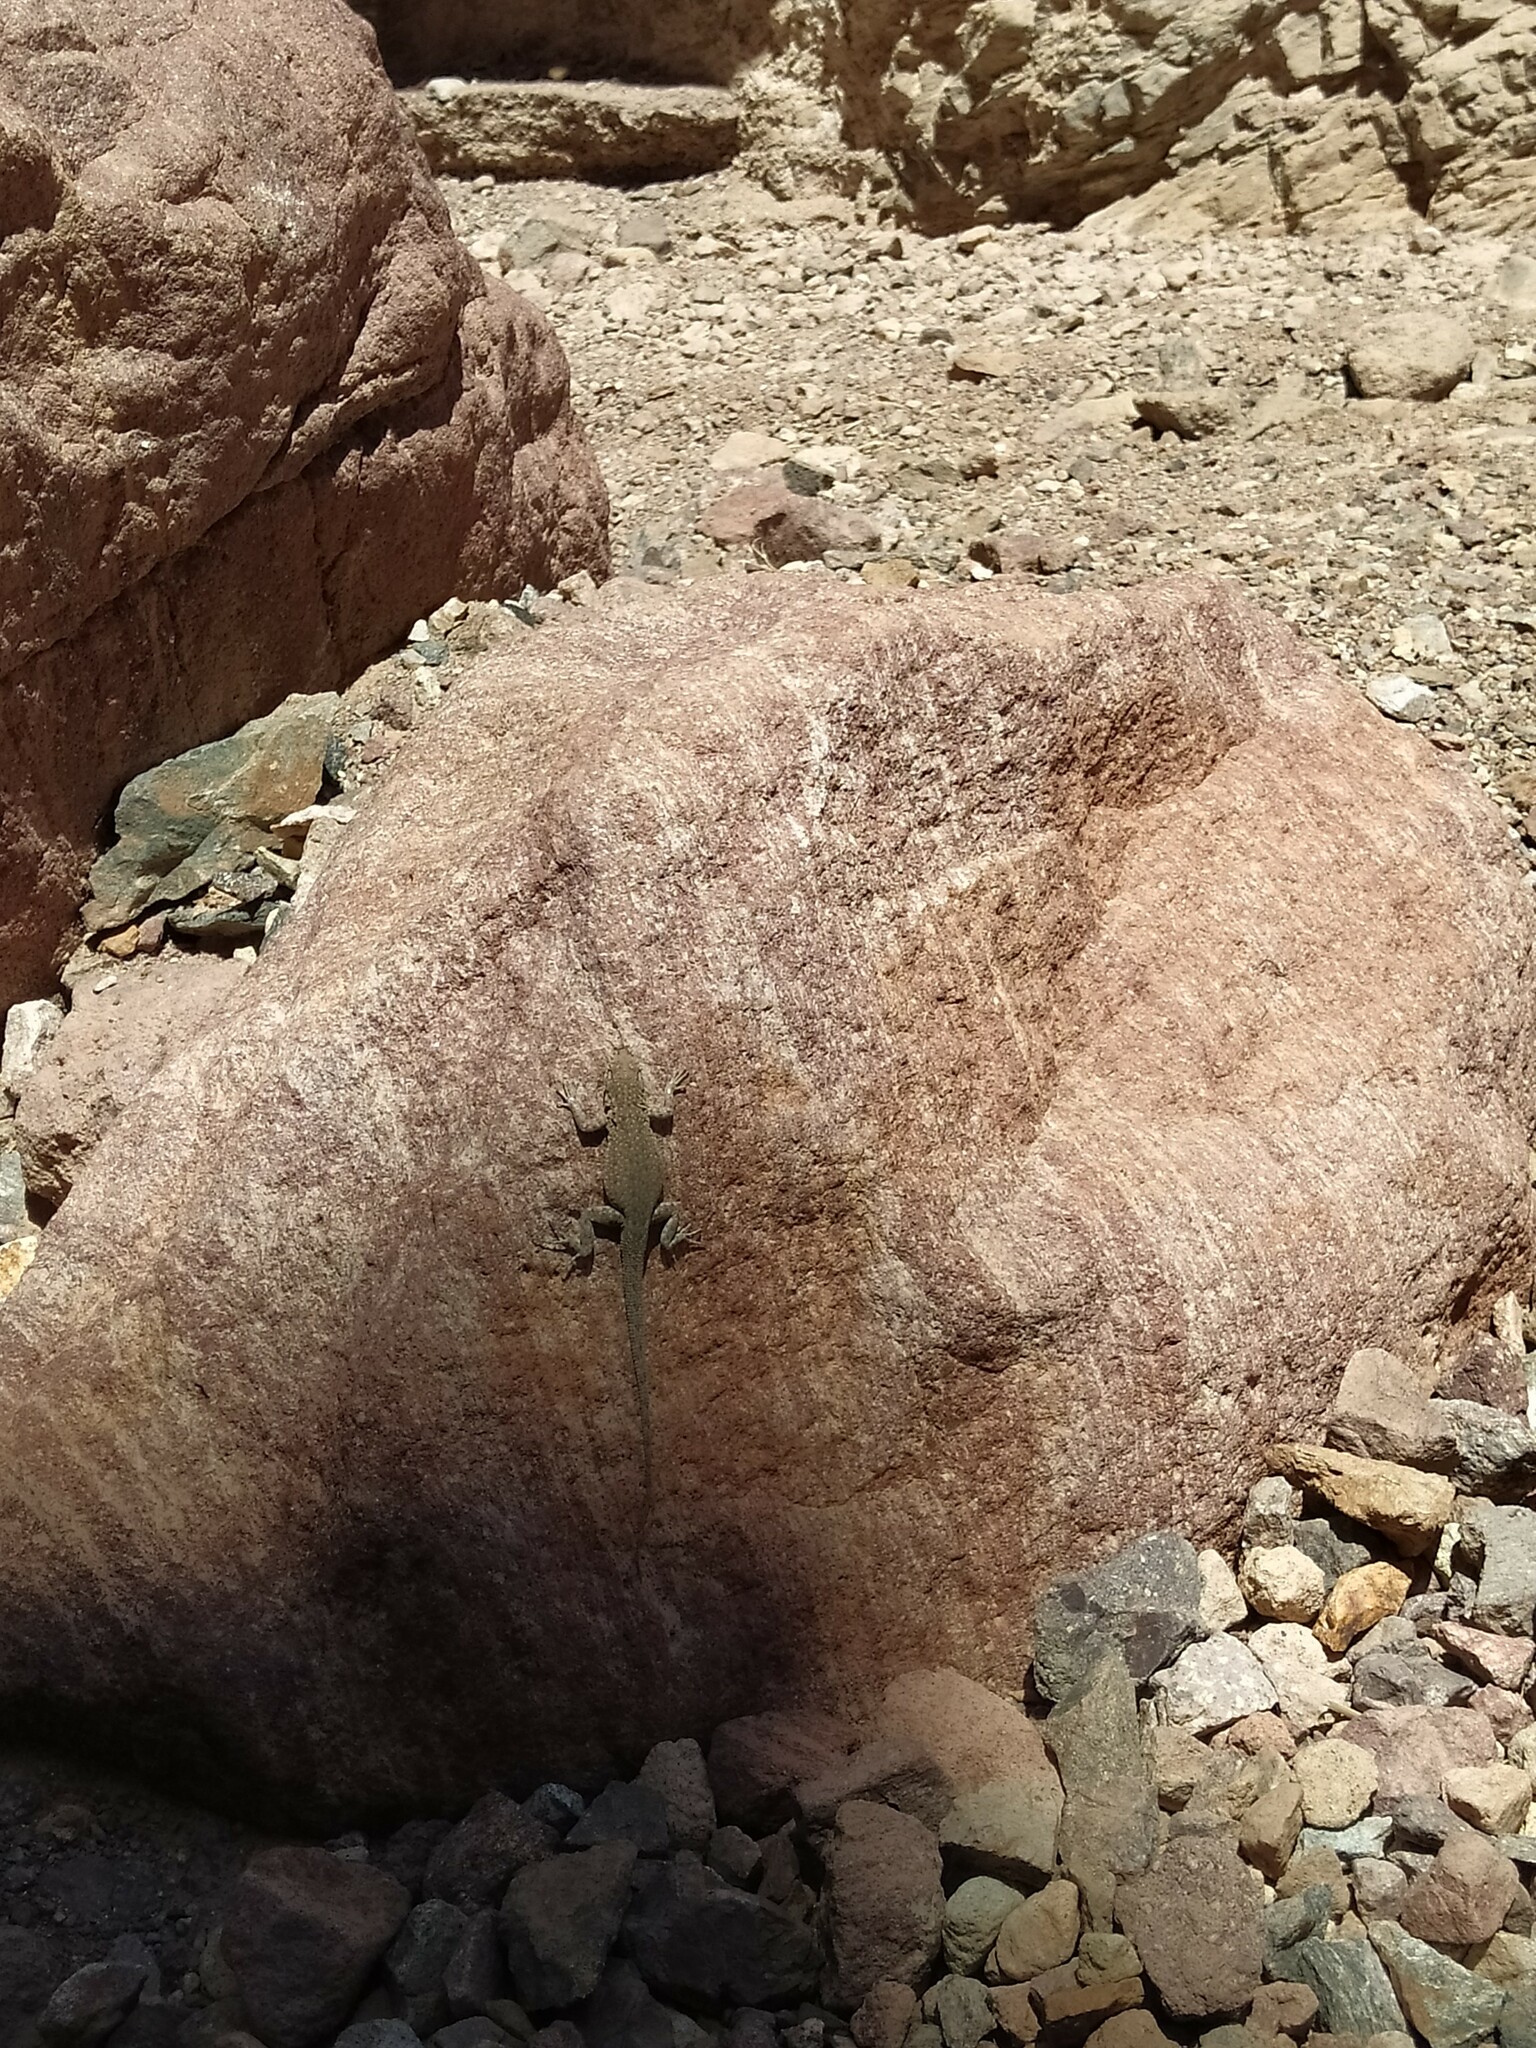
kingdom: Animalia
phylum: Chordata
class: Squamata
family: Phrynosomatidae
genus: Uta
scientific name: Uta stansburiana
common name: Side-blotched lizard
